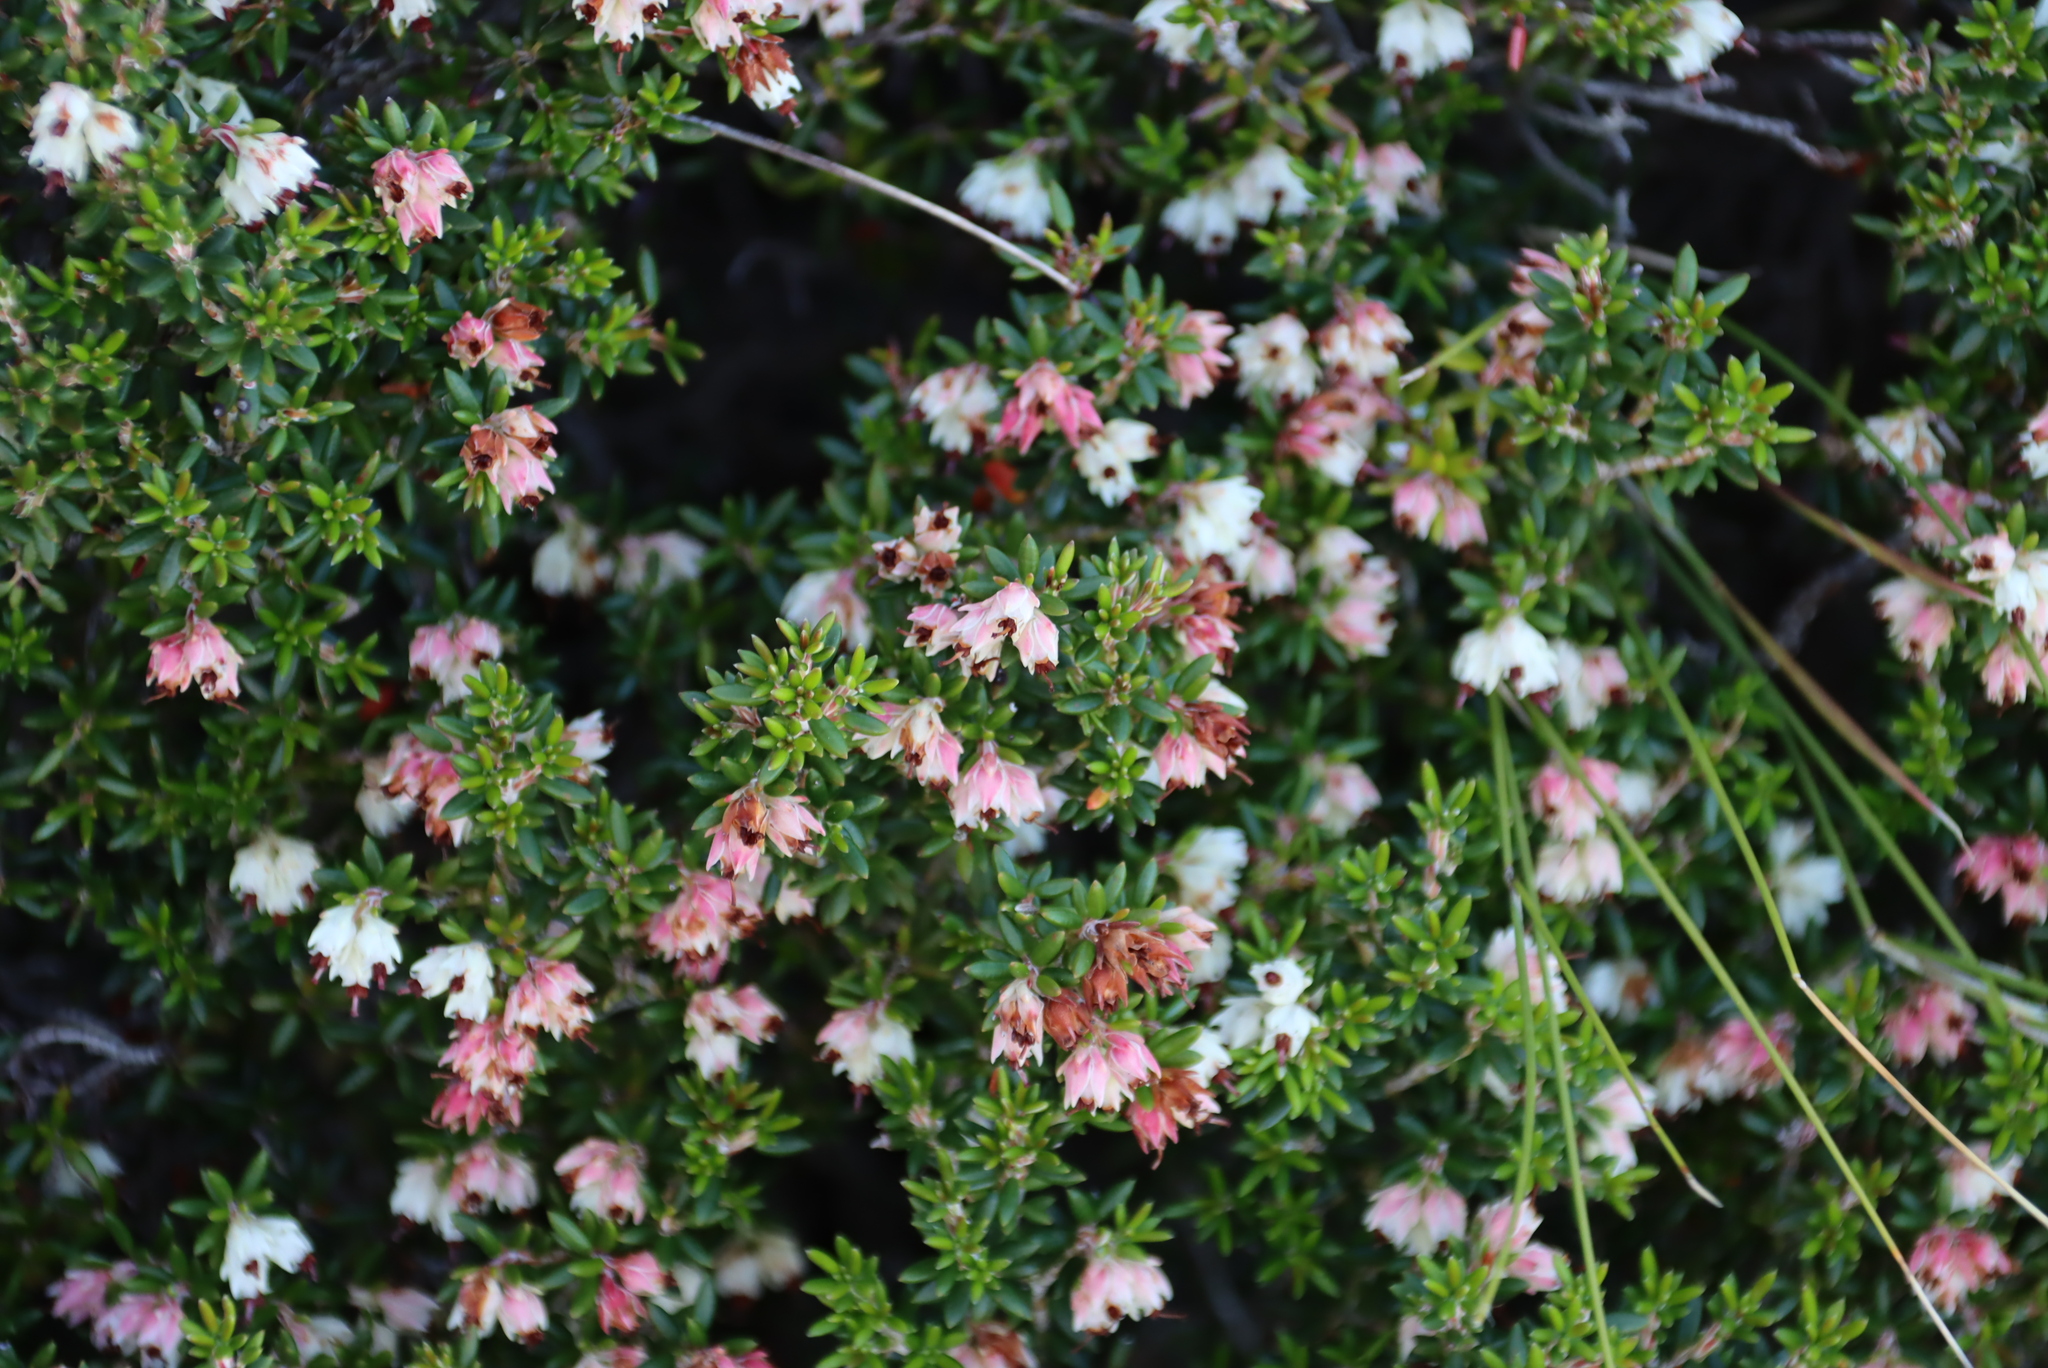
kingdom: Plantae
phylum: Tracheophyta
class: Magnoliopsida
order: Ericales
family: Ericaceae
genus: Erica
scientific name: Erica petiolaris
